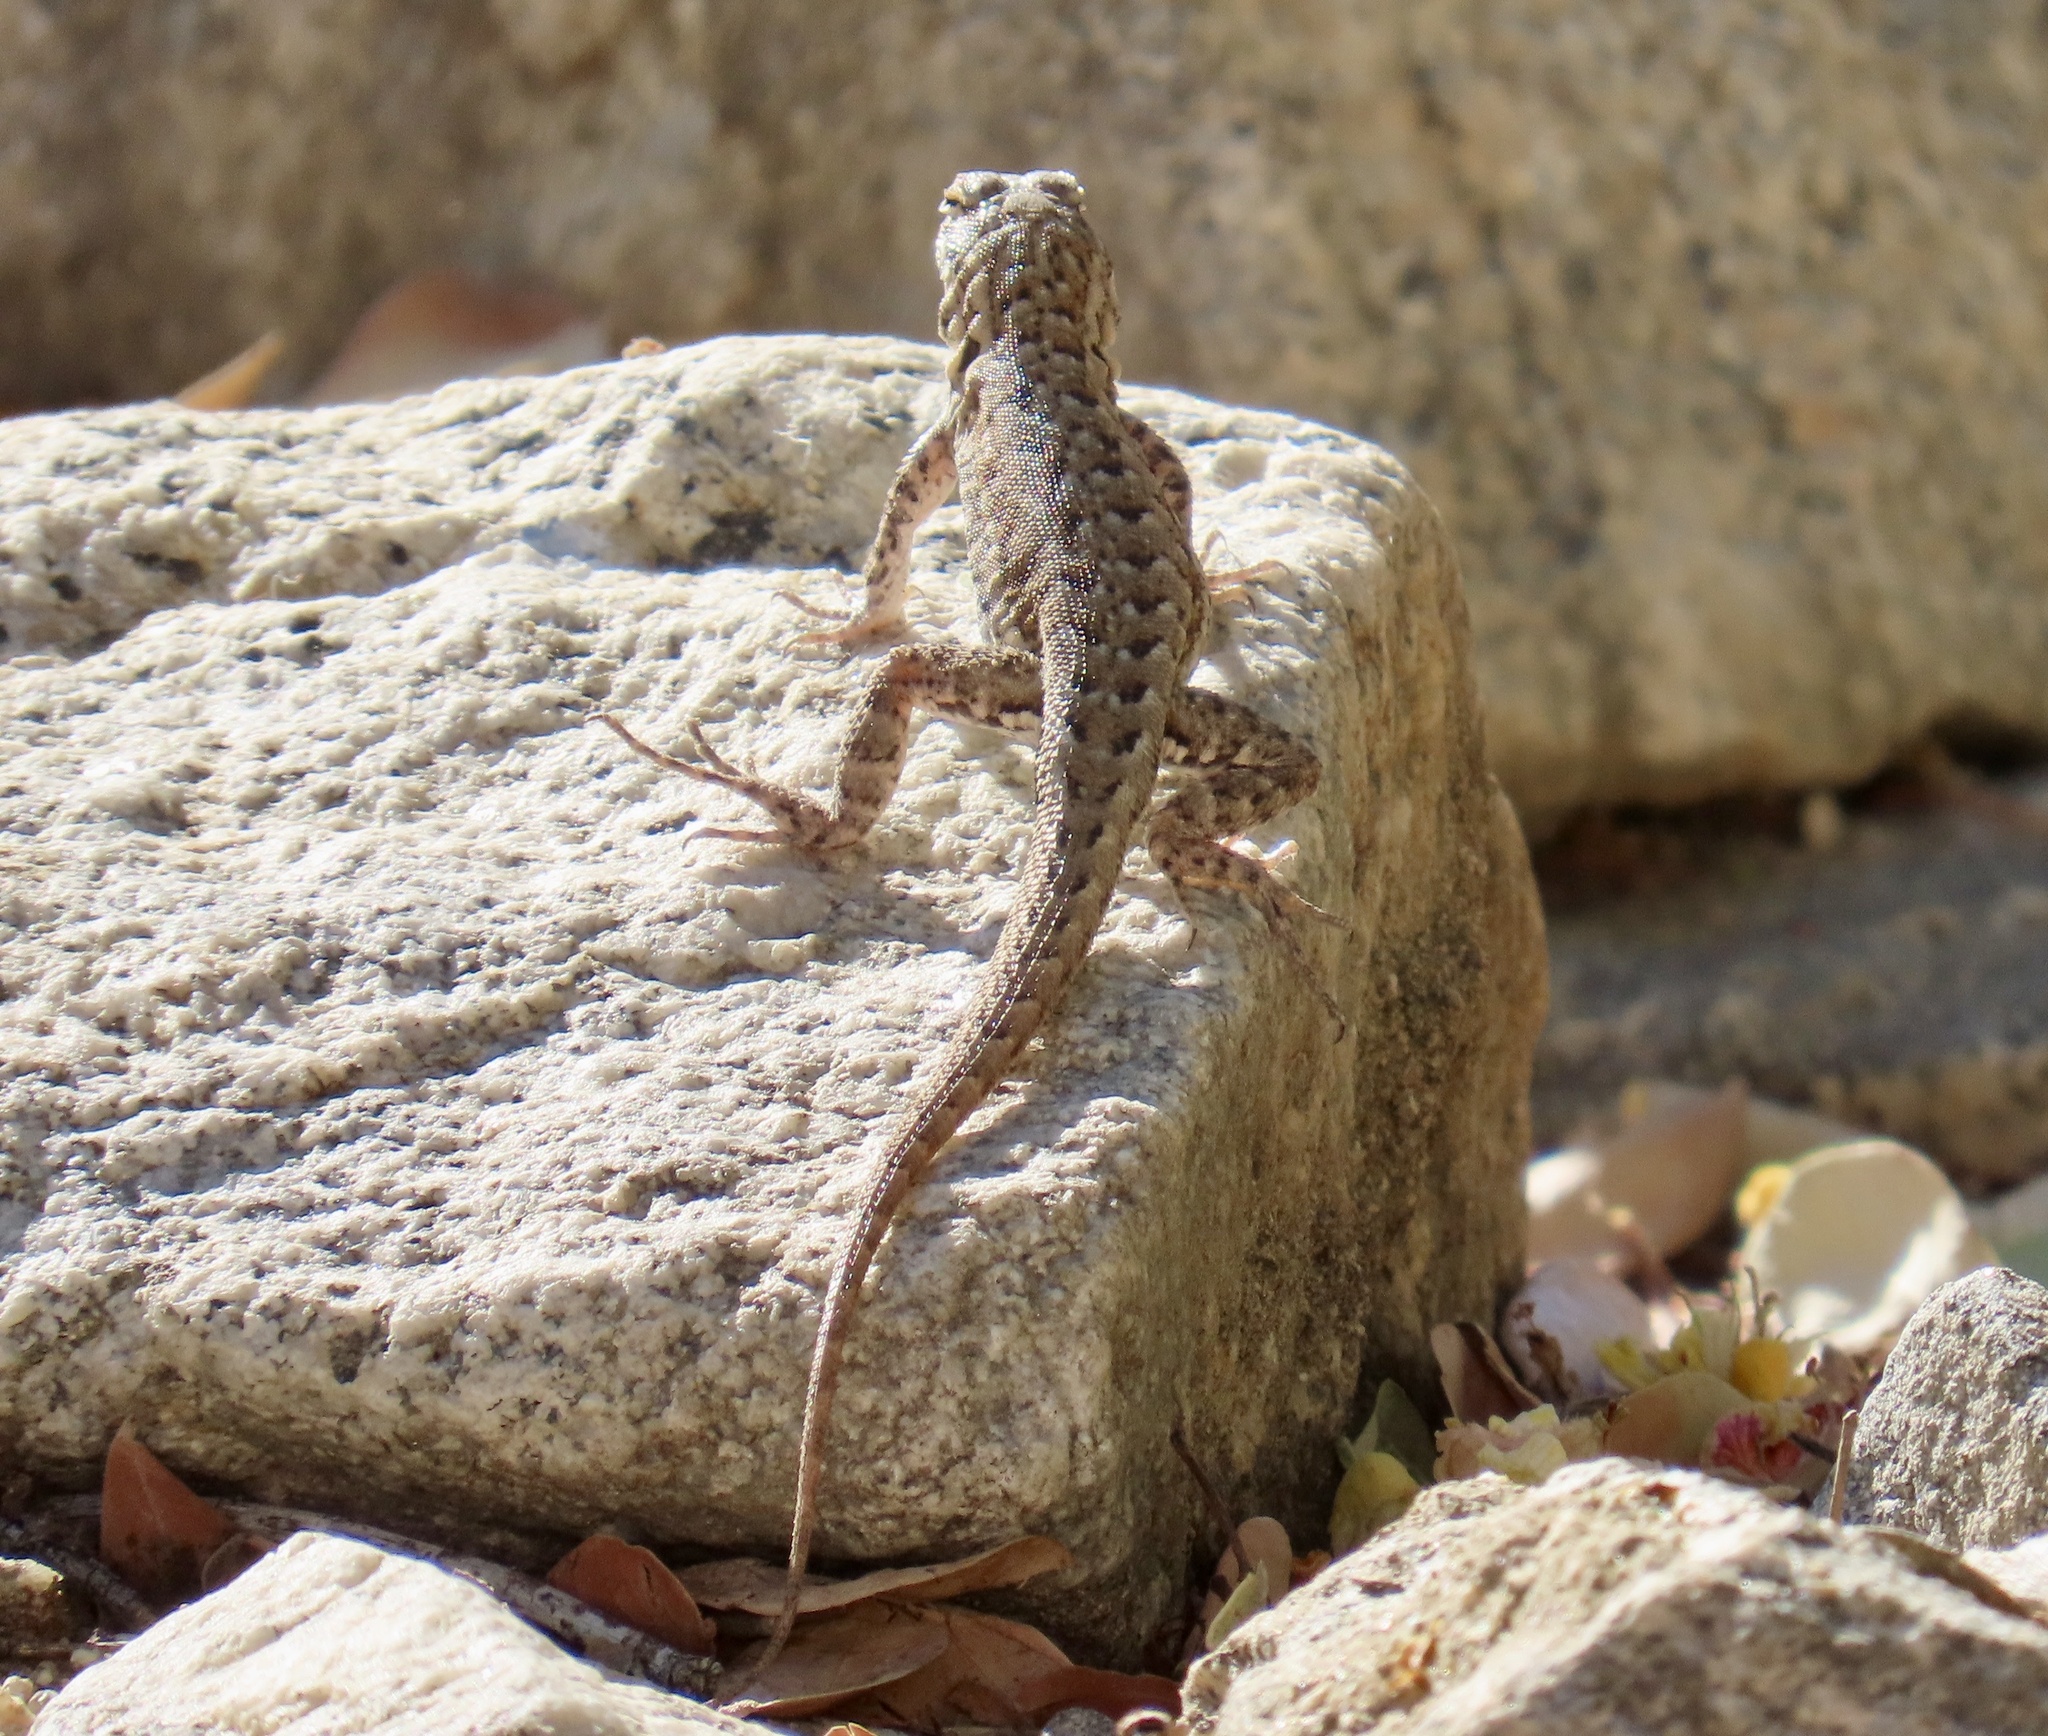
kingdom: Animalia
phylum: Chordata
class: Squamata
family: Phrynosomatidae
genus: Uta
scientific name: Uta stansburiana
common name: Side-blotched lizard
